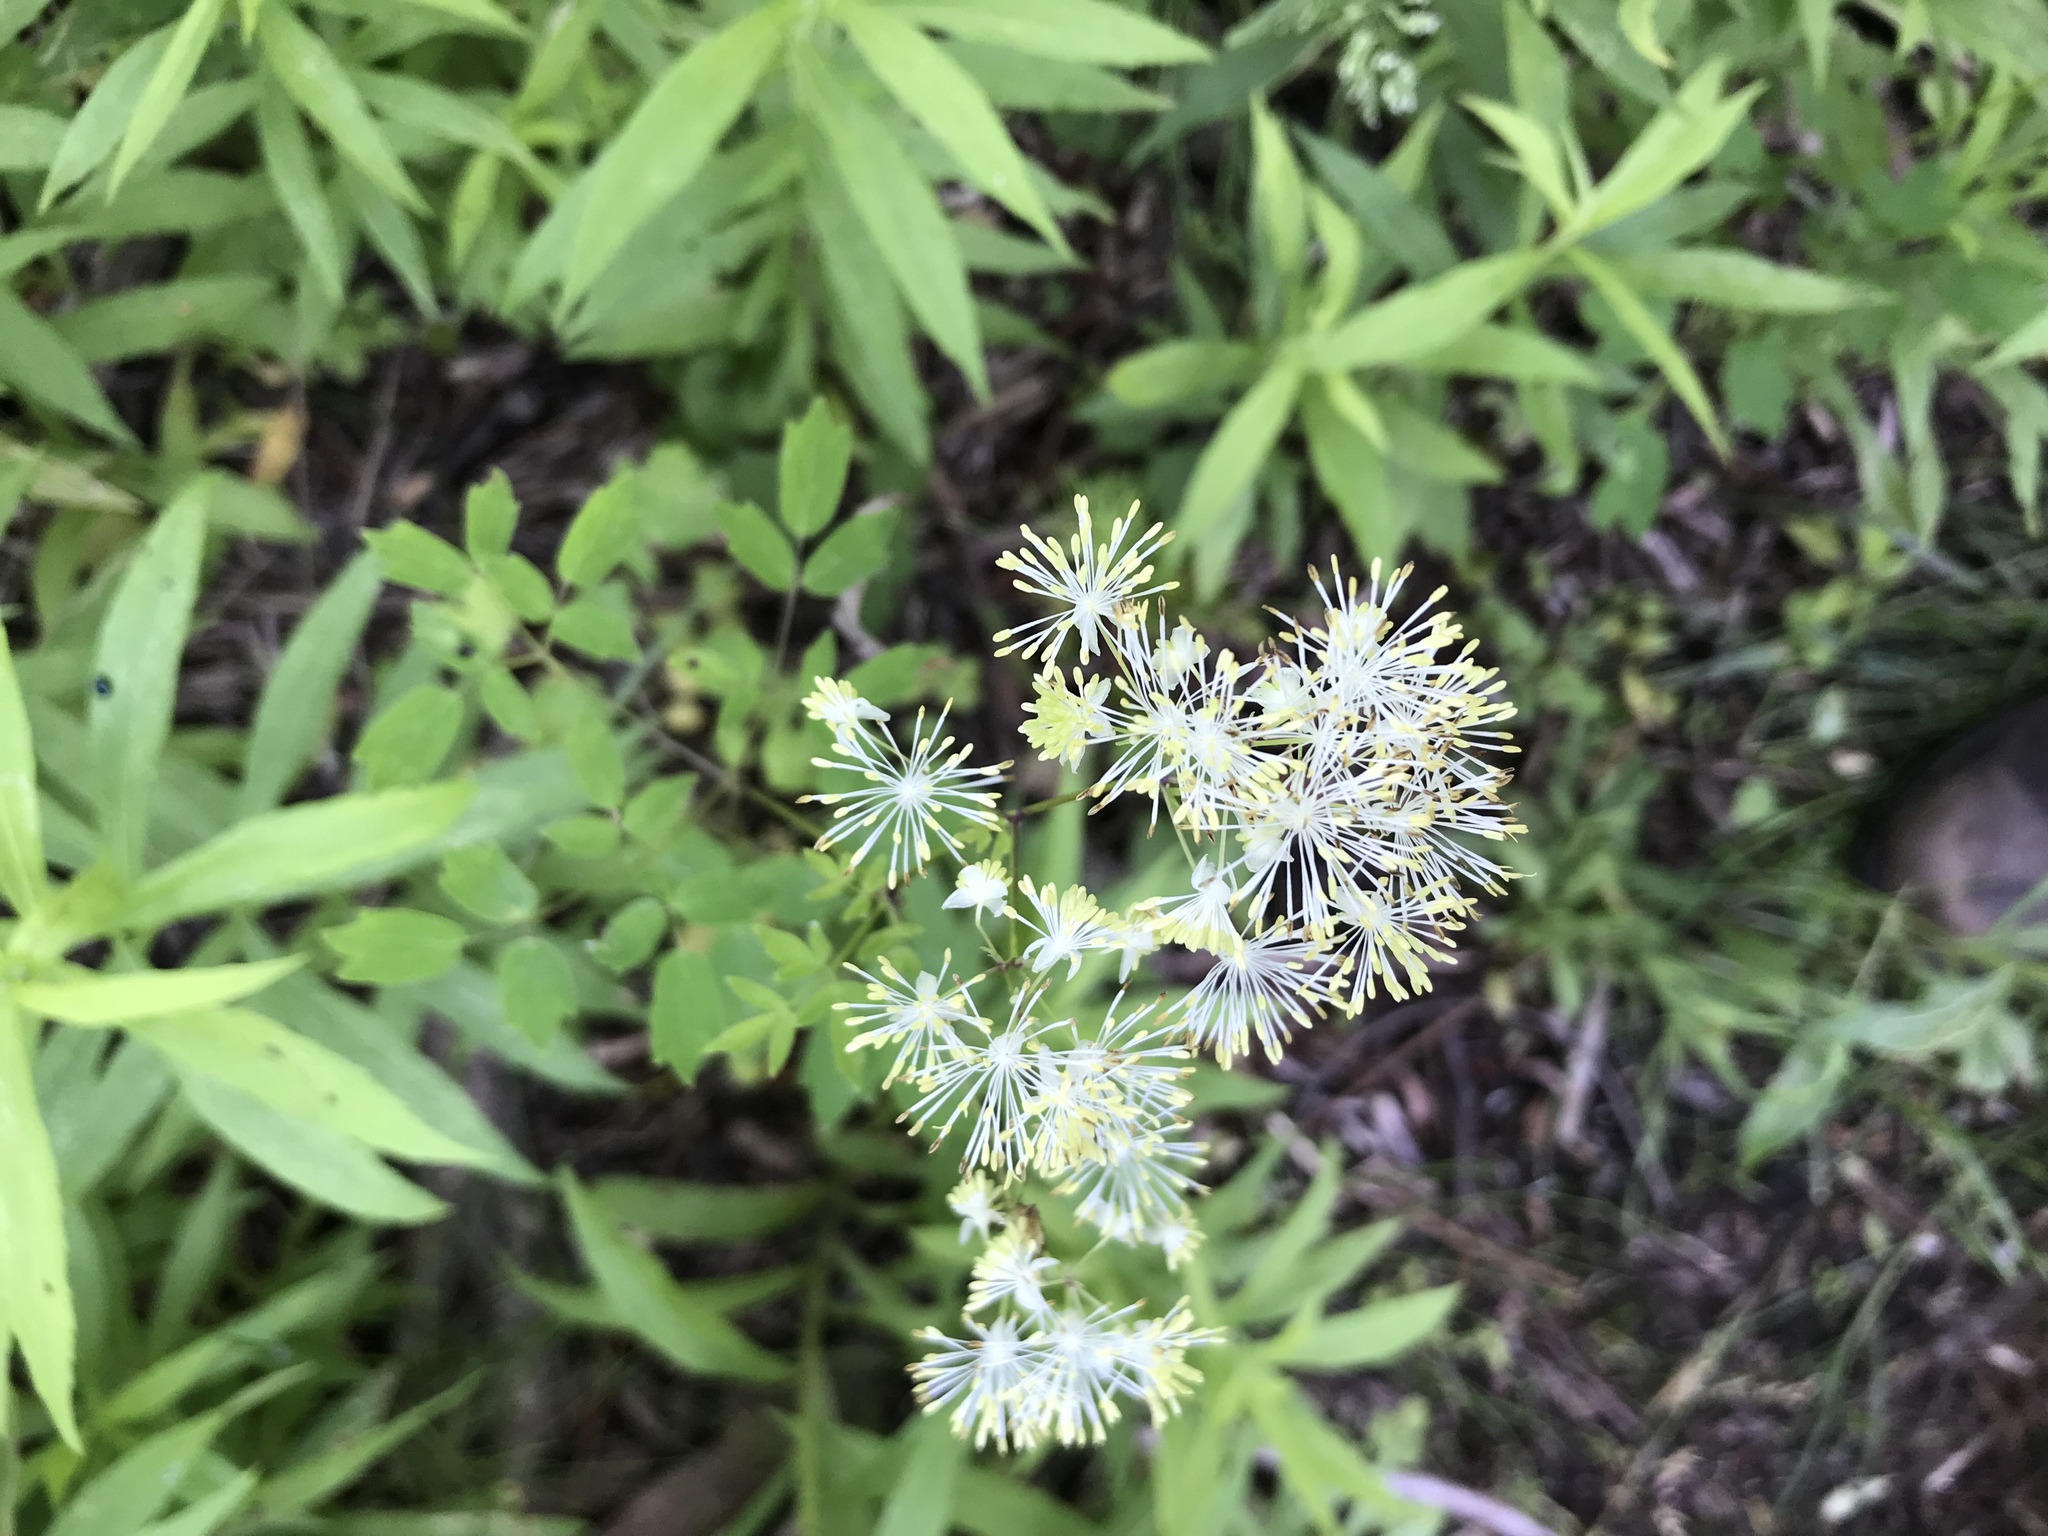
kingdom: Plantae
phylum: Tracheophyta
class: Magnoliopsida
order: Ranunculales
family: Ranunculaceae
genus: Thalictrum
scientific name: Thalictrum pubescens
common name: King-of-the-meadow
